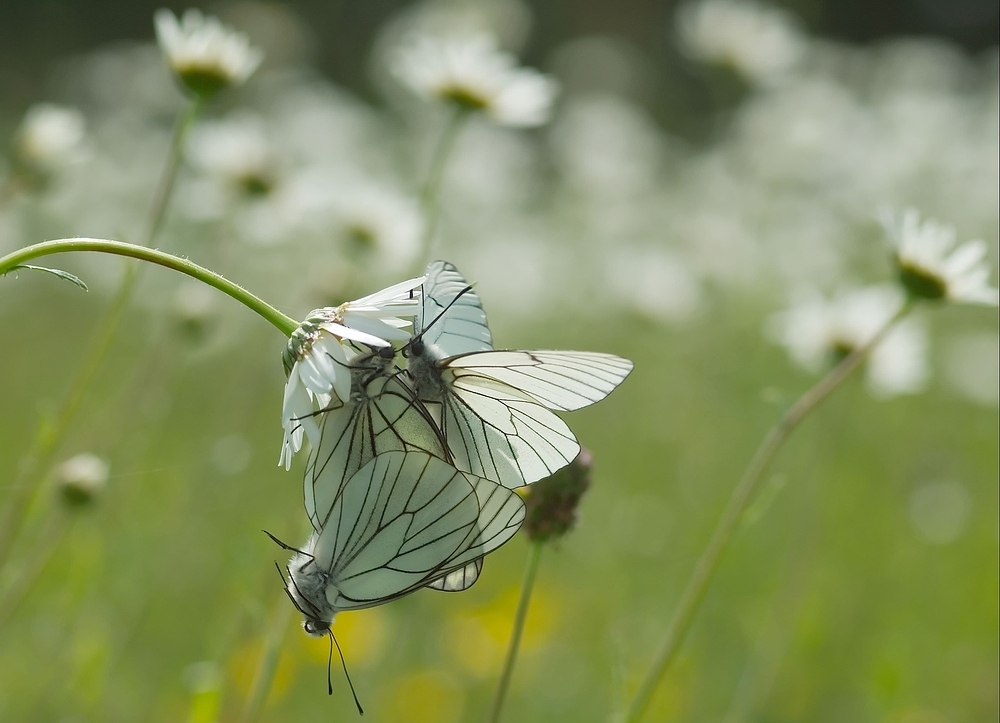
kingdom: Animalia
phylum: Arthropoda
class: Insecta
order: Lepidoptera
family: Pieridae
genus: Aporia
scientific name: Aporia crataegi
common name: Black-veined white
